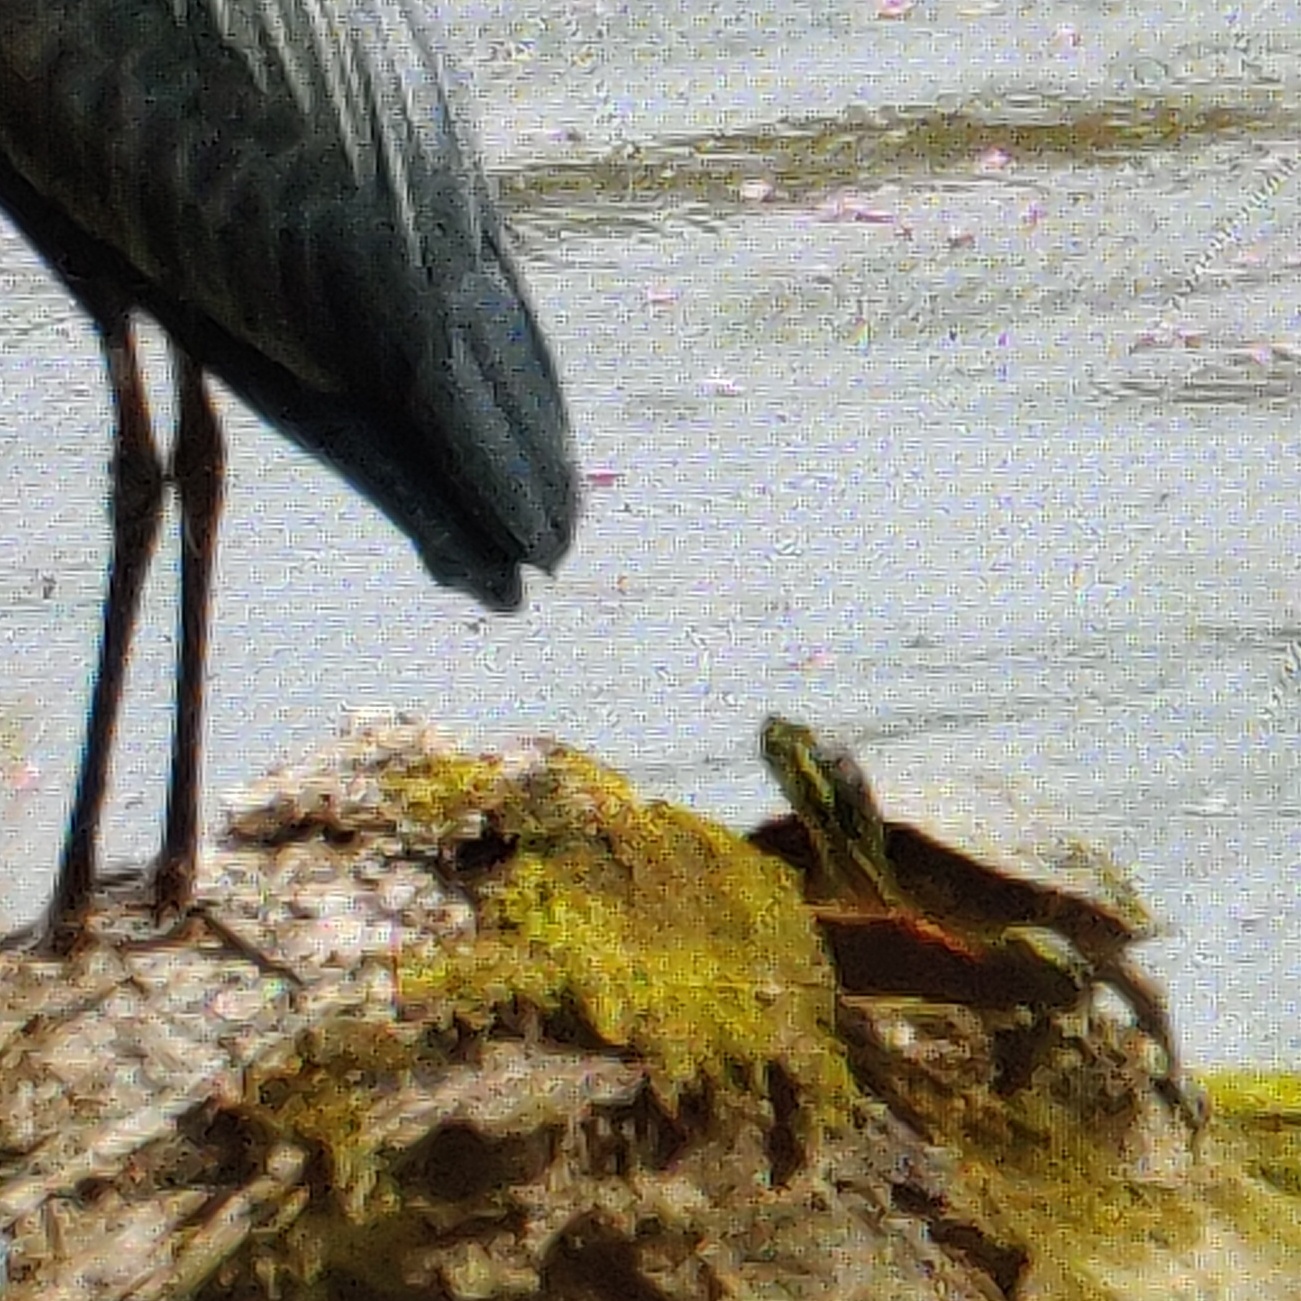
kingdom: Animalia
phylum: Chordata
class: Testudines
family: Emydidae
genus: Chrysemys
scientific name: Chrysemys picta
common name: Painted turtle
